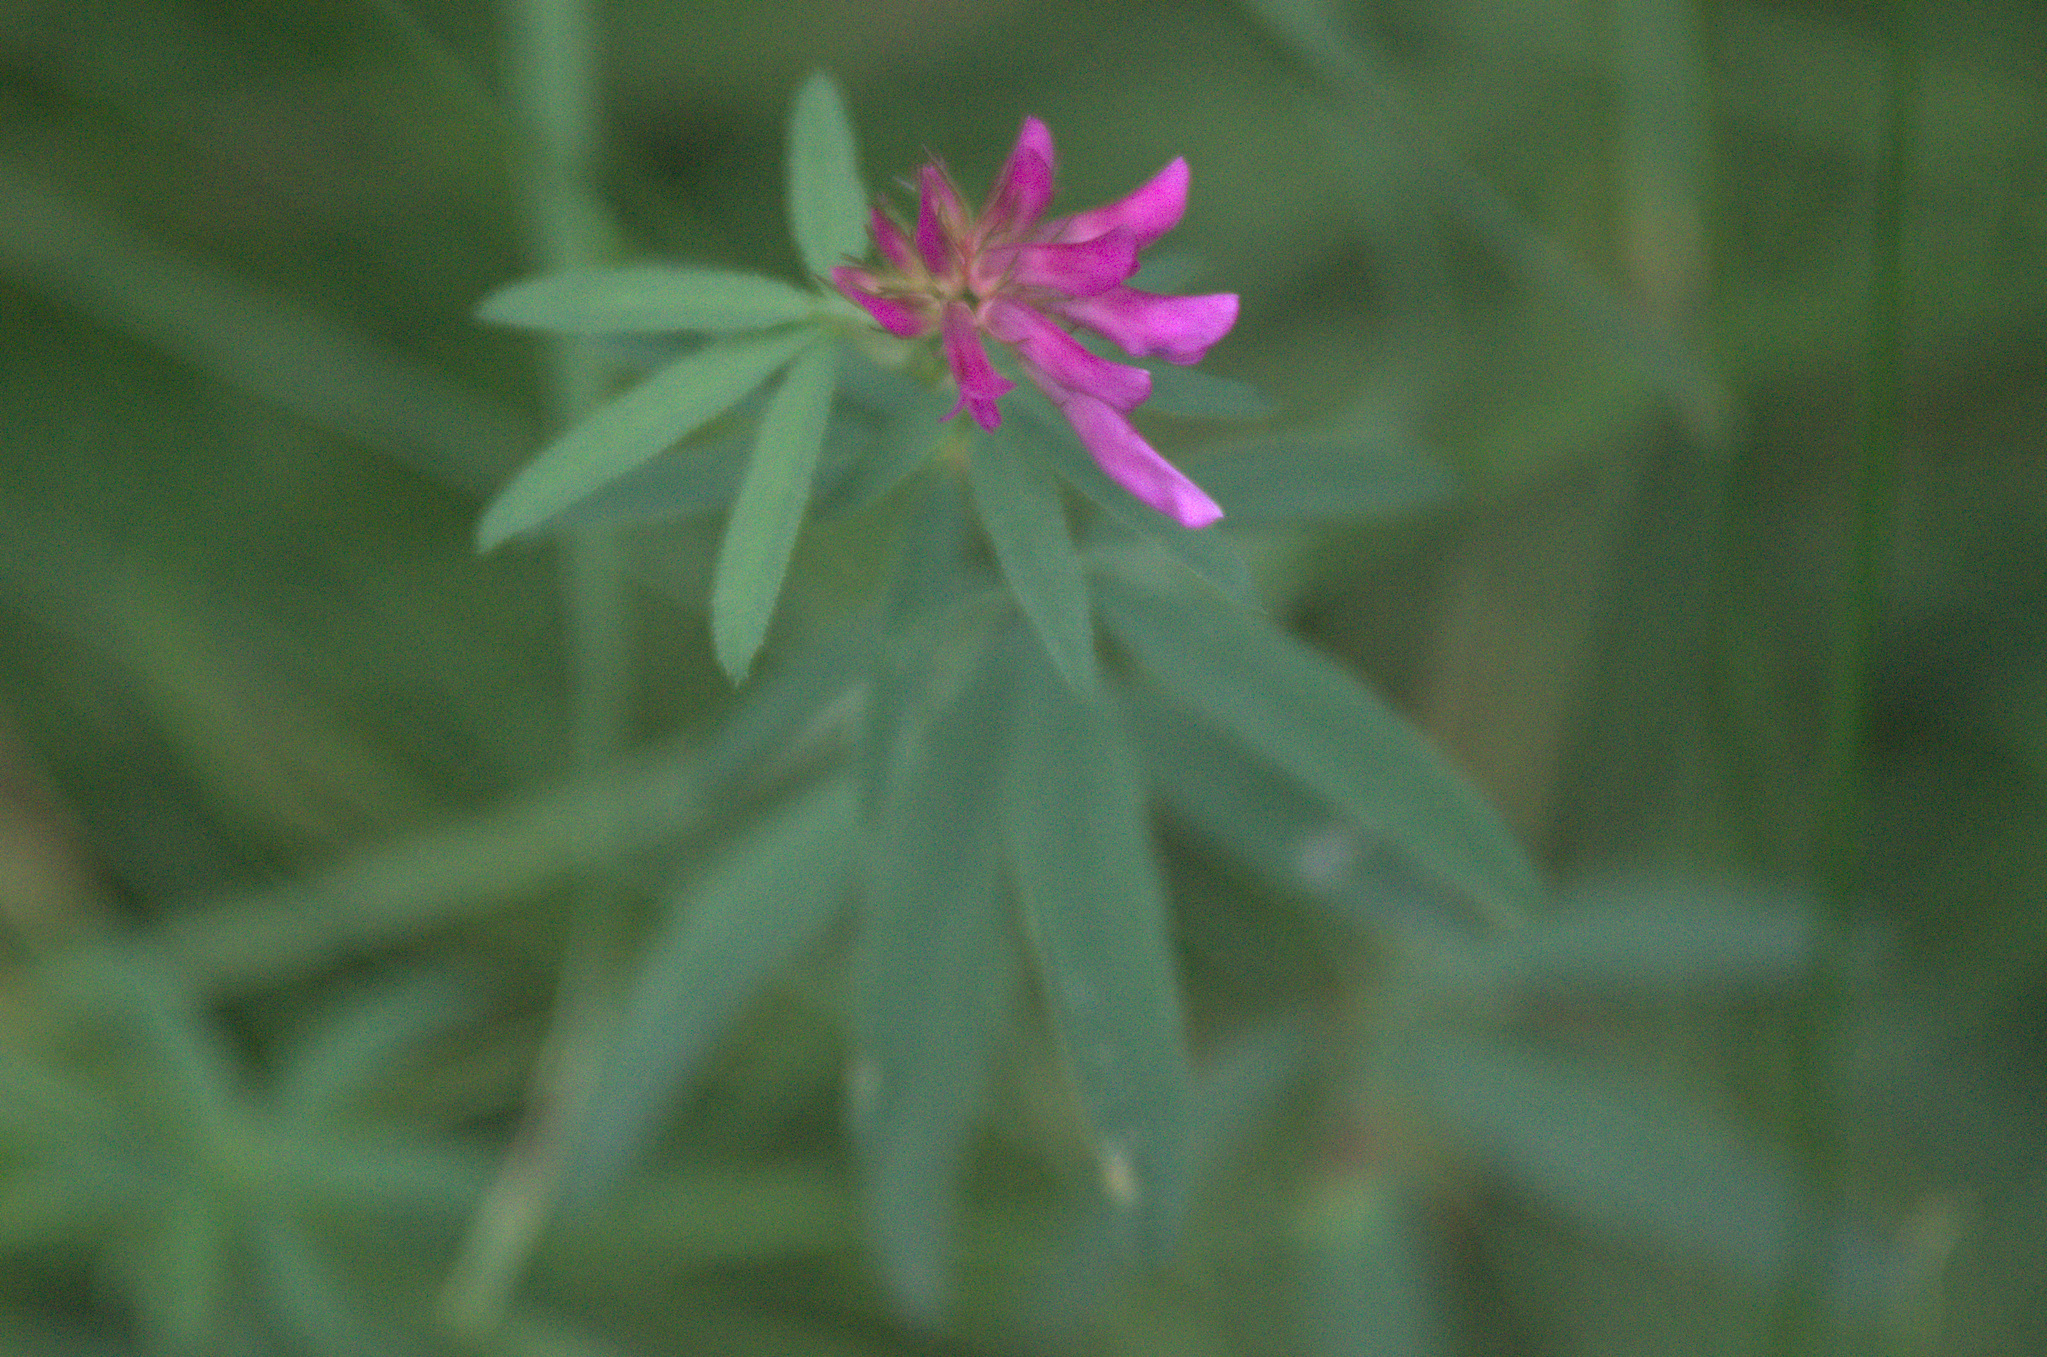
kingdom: Plantae
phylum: Tracheophyta
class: Magnoliopsida
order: Fabales
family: Fabaceae
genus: Trifolium
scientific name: Trifolium lupinaster
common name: Lupine clover
